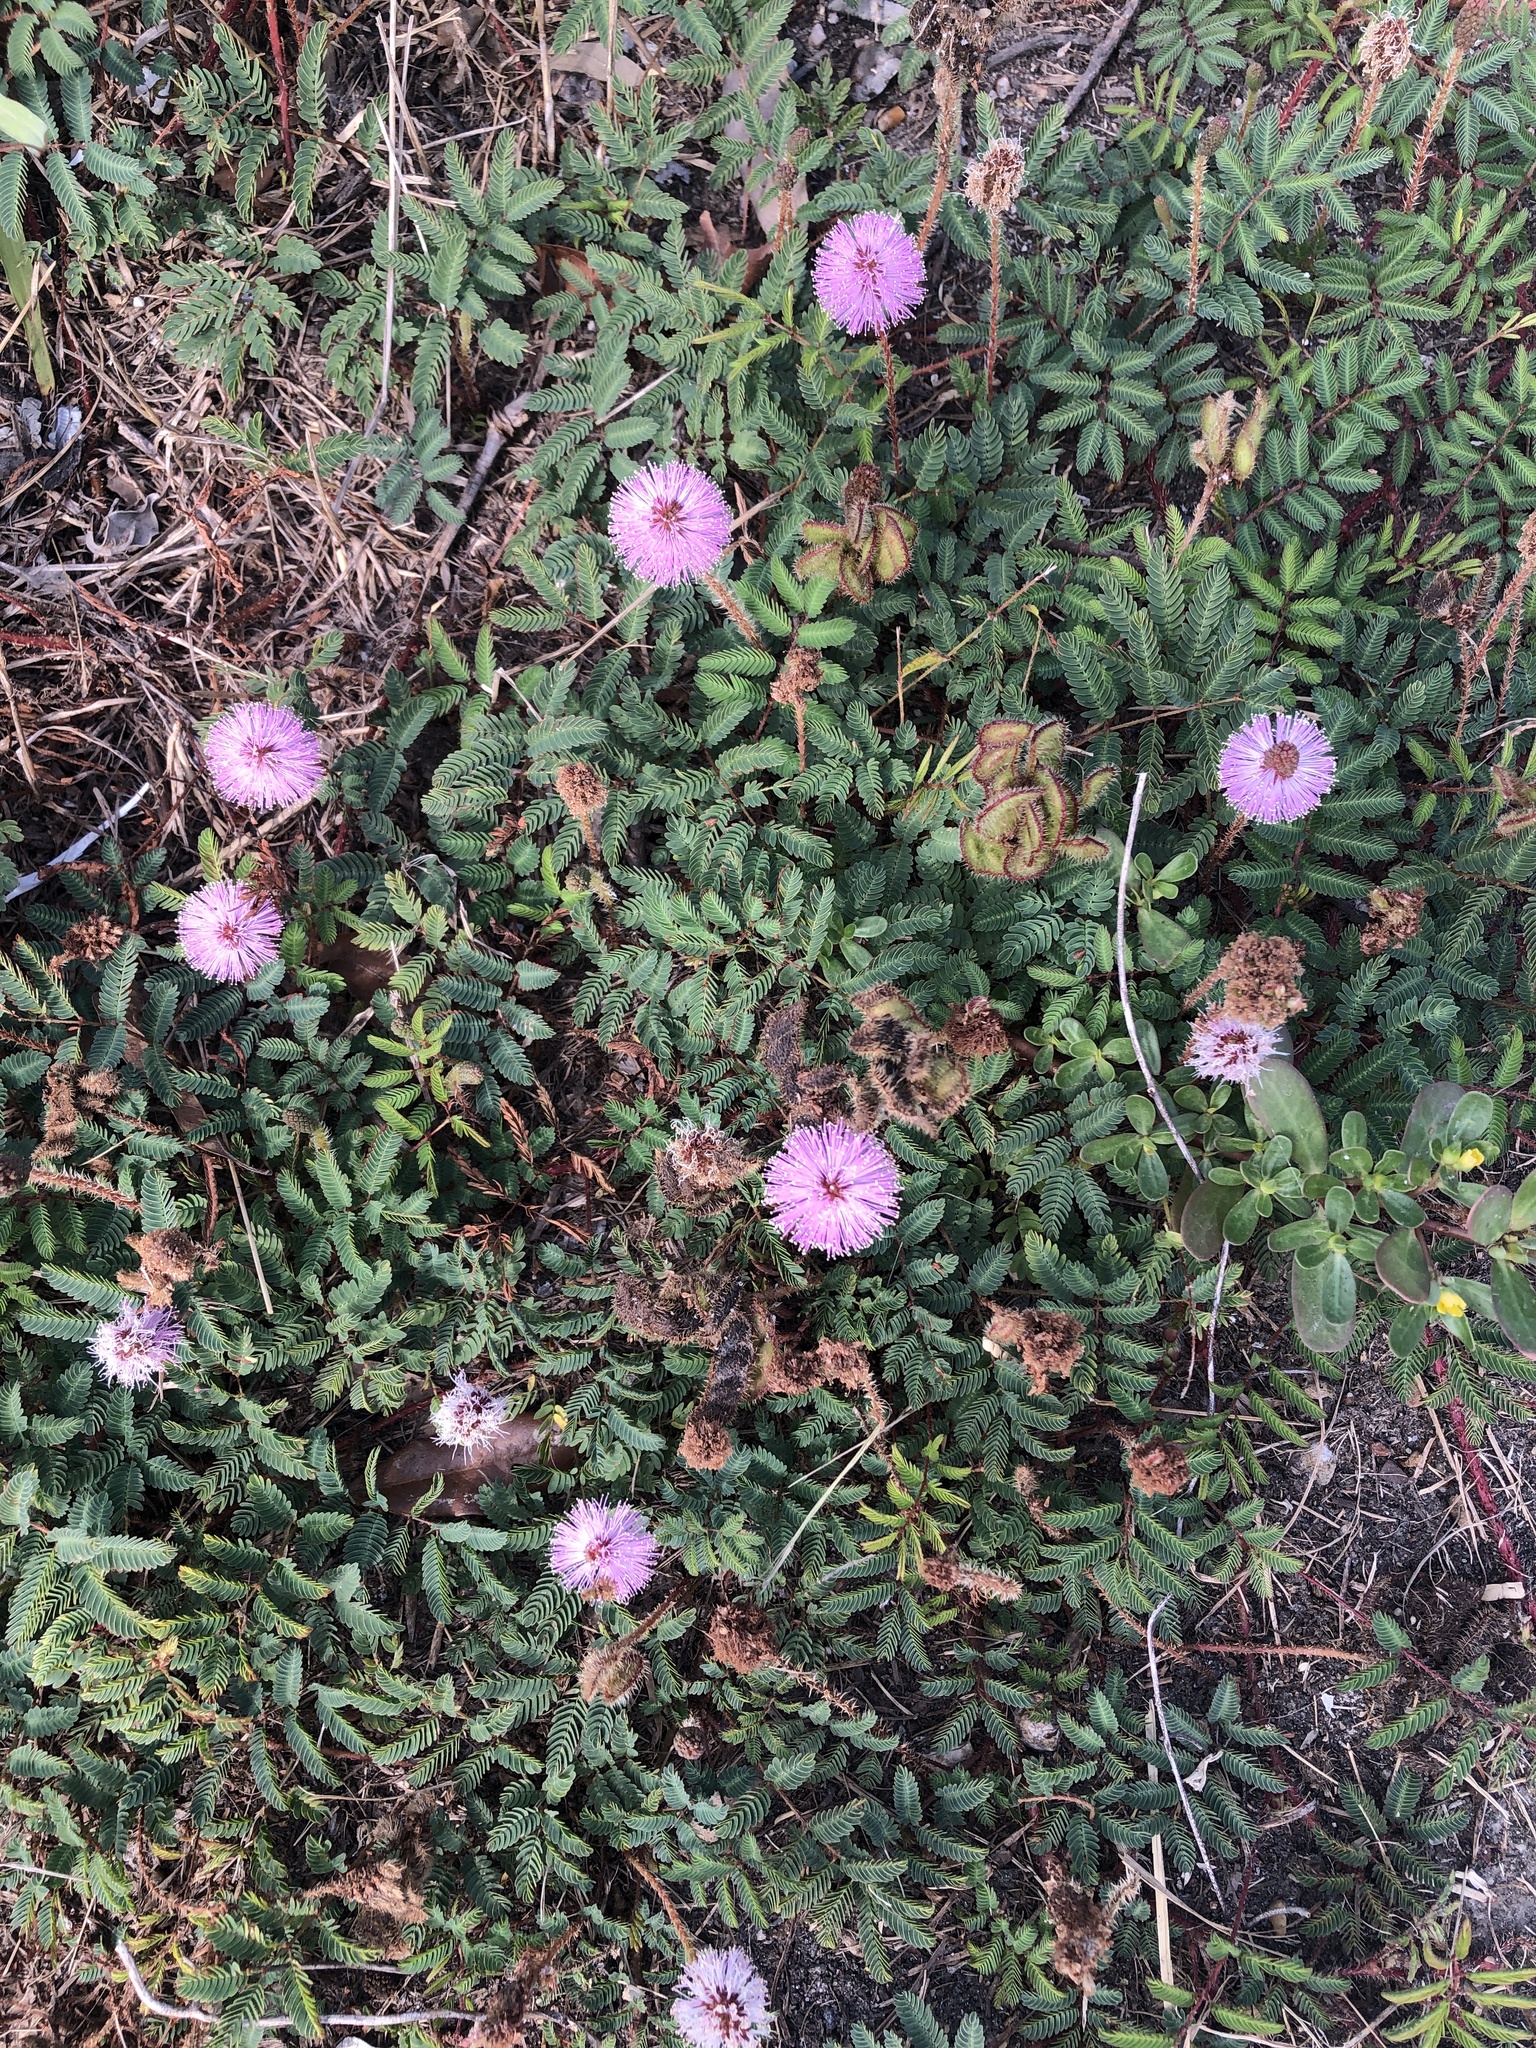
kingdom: Plantae
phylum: Tracheophyta
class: Magnoliopsida
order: Fabales
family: Fabaceae
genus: Mimosa
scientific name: Mimosa strigillosa
